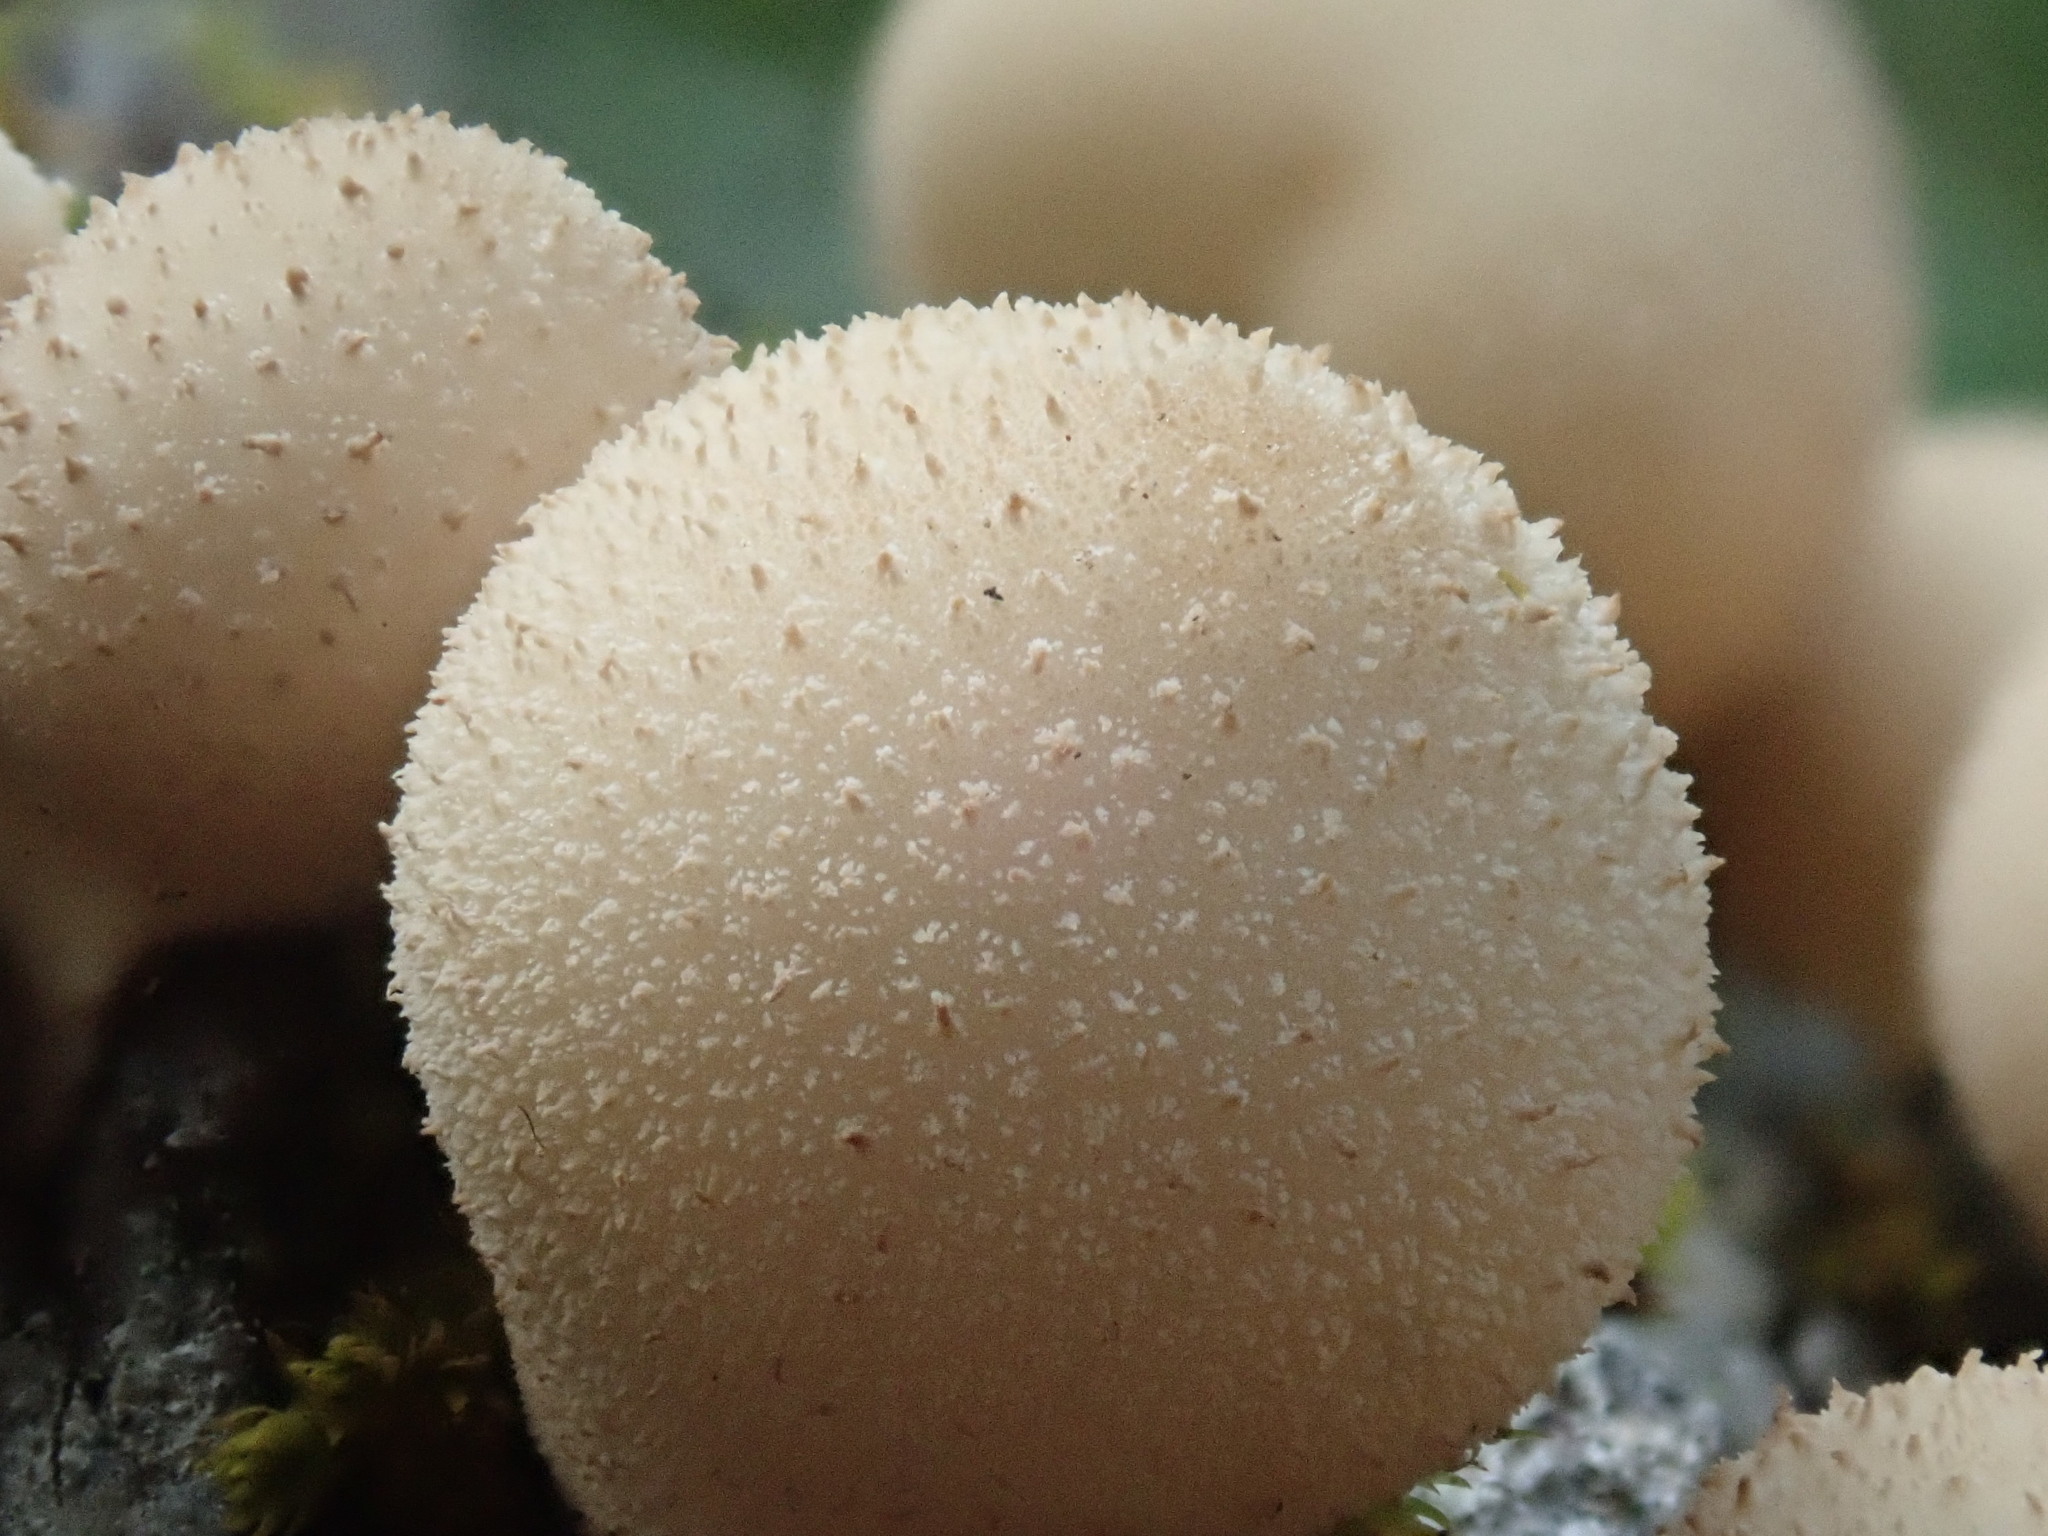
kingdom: Fungi
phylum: Basidiomycota
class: Agaricomycetes
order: Agaricales
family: Lycoperdaceae
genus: Apioperdon
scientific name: Apioperdon pyriforme
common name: Pear-shaped puffball
